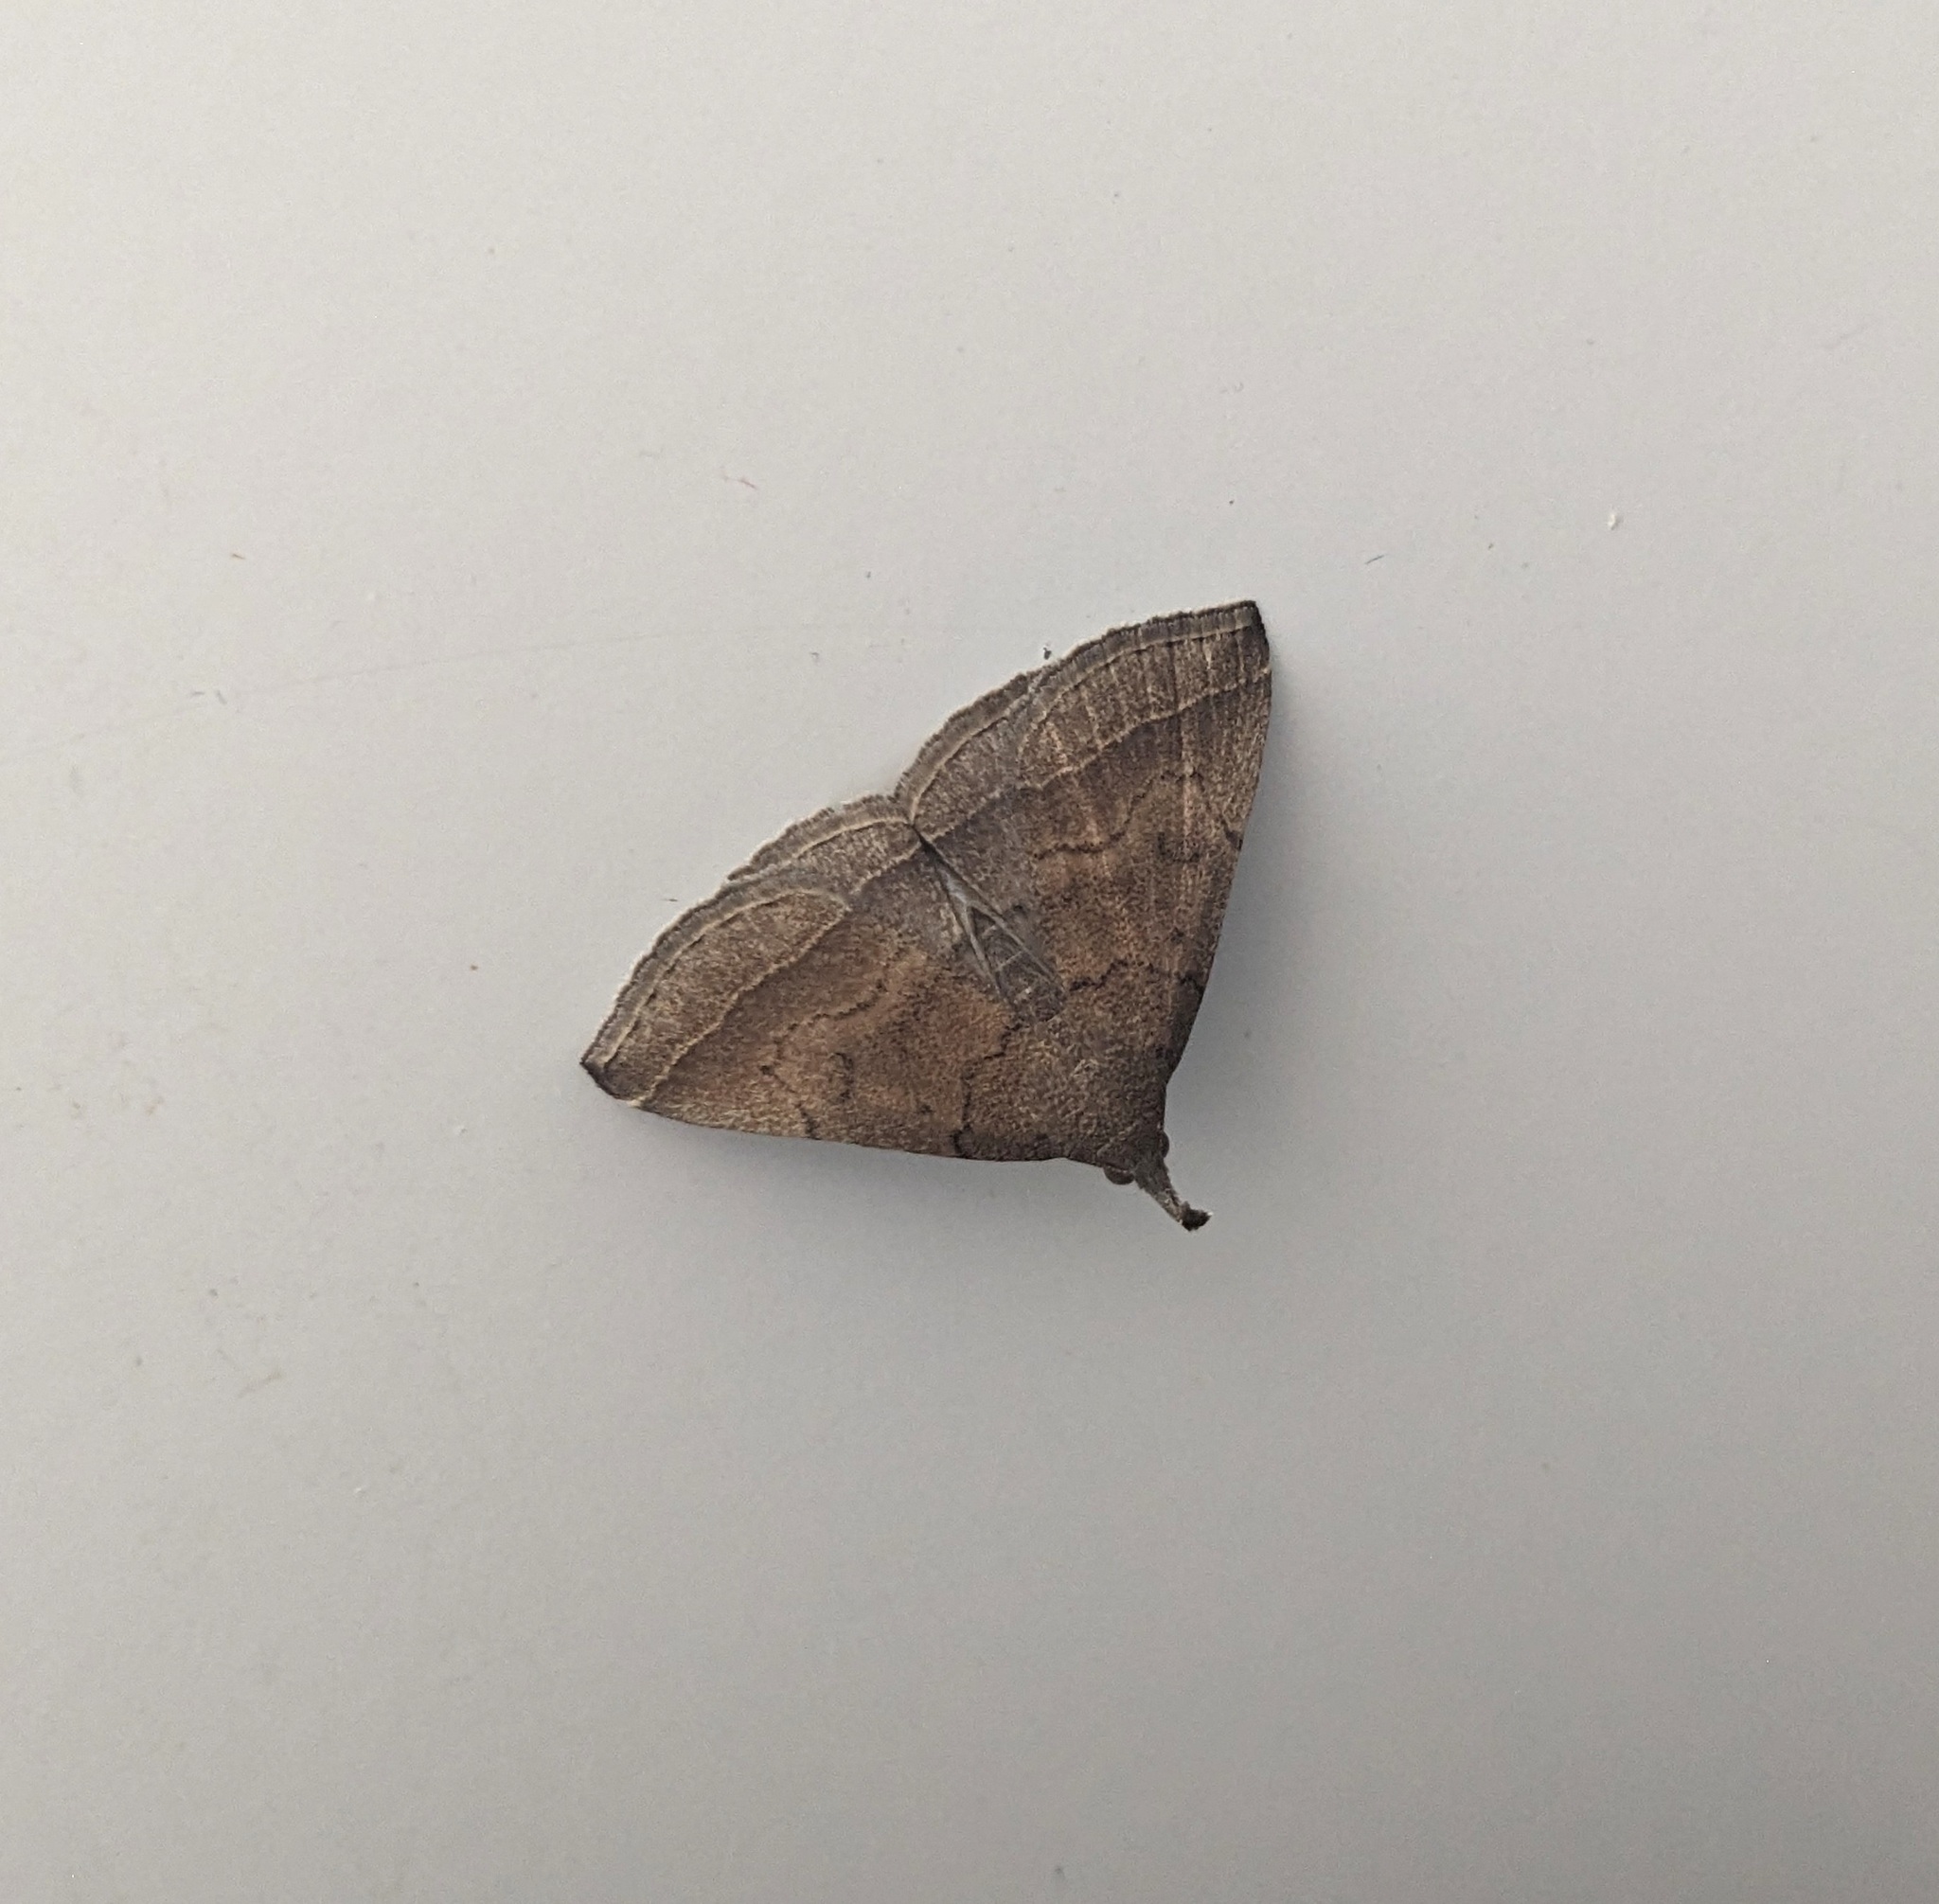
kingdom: Animalia
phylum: Arthropoda
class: Insecta
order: Lepidoptera
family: Erebidae
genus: Pechipogo
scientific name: Pechipogo plumigeralis
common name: Plumed fan-foot
